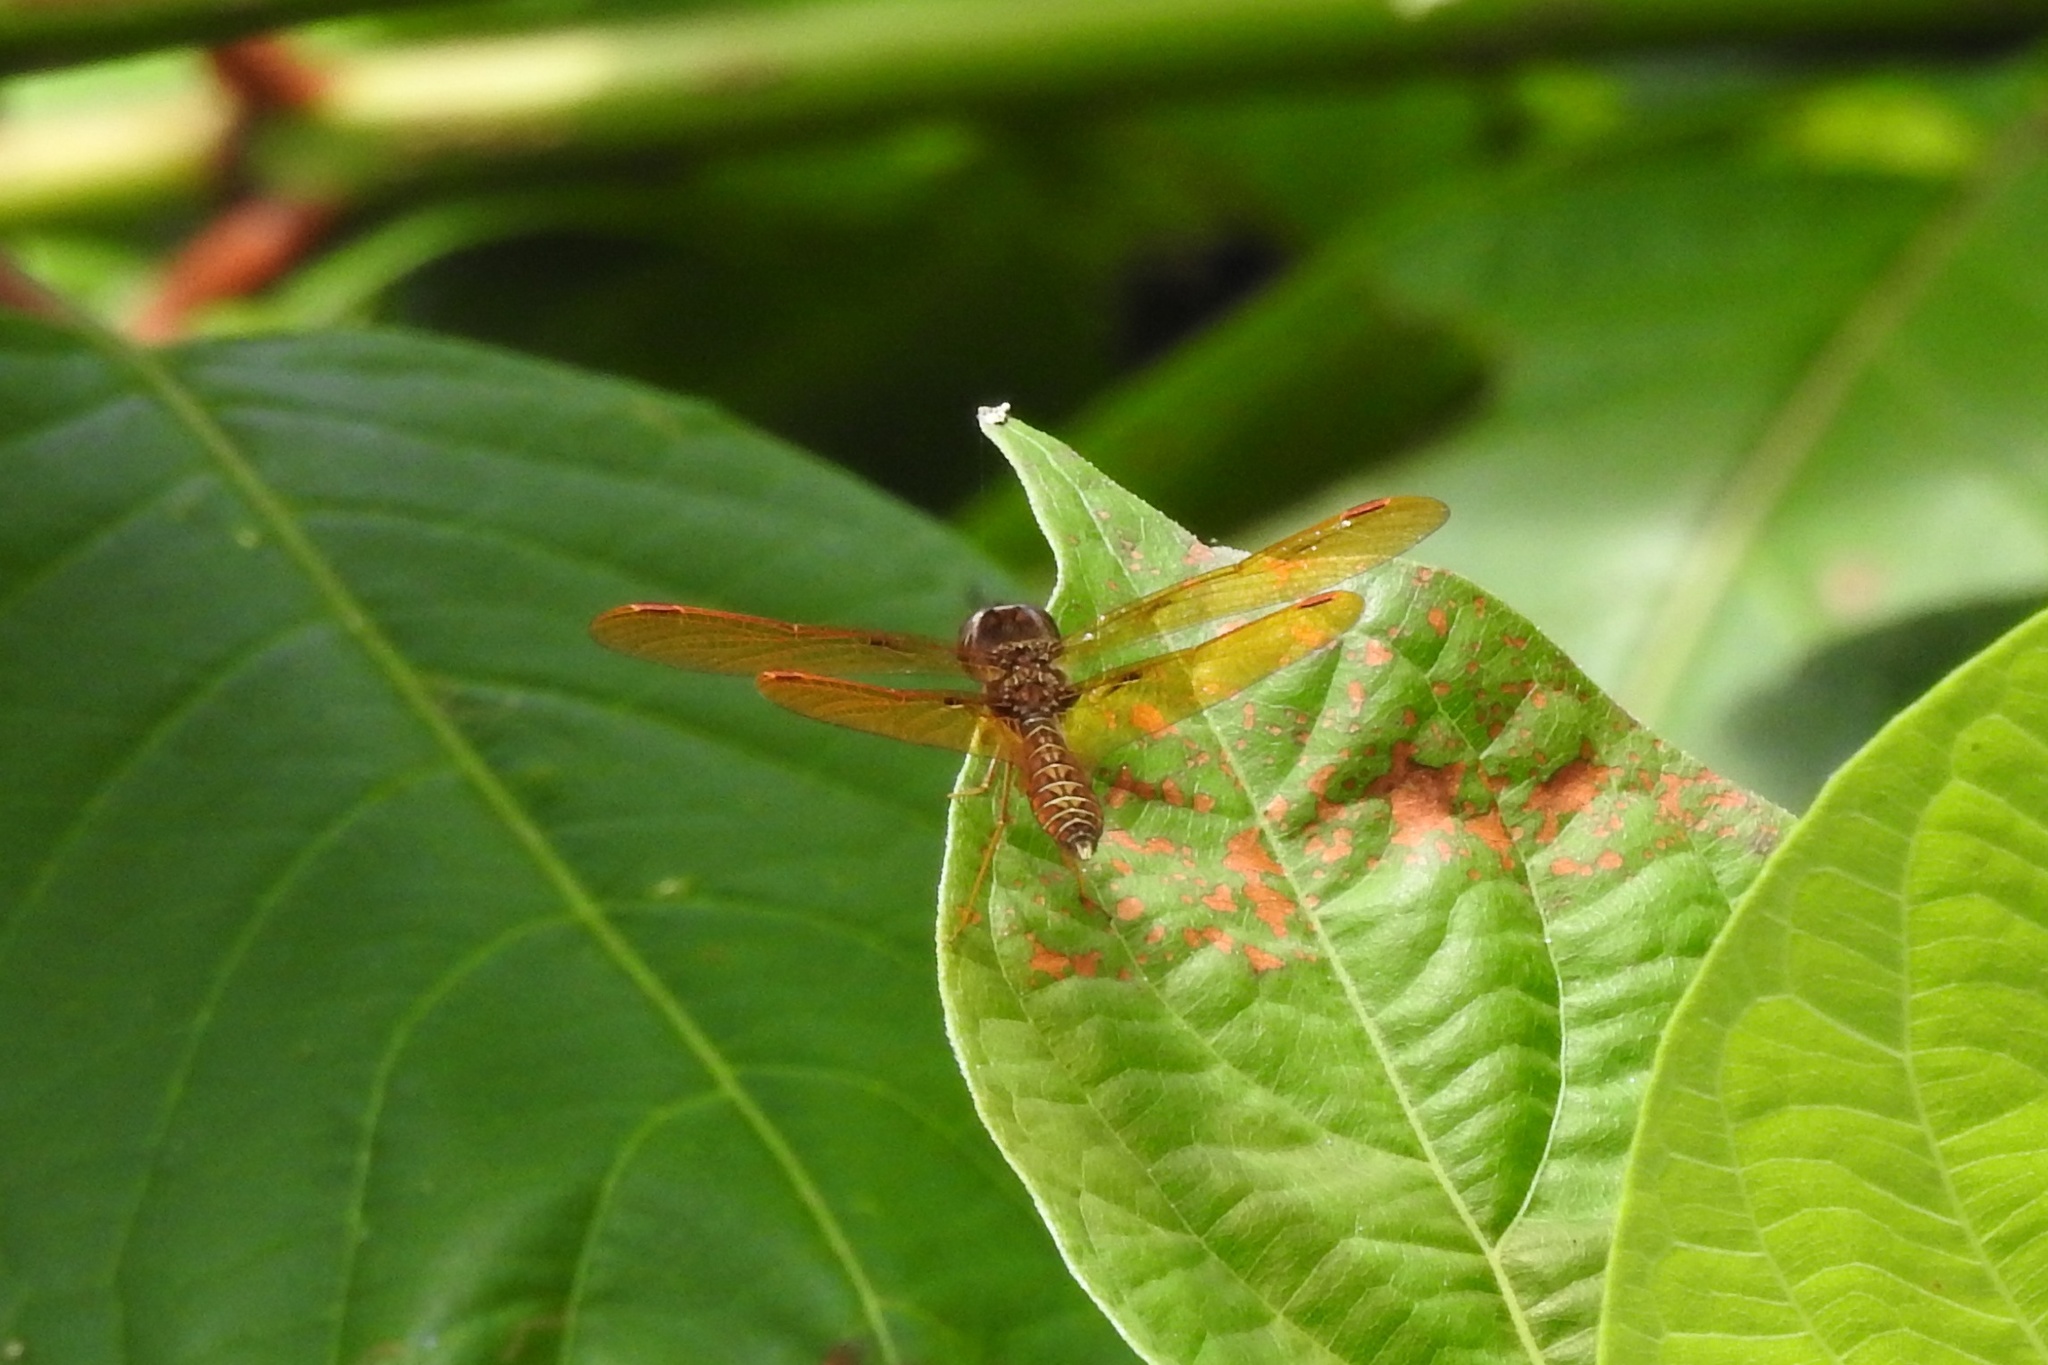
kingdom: Animalia
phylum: Arthropoda
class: Insecta
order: Odonata
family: Libellulidae
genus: Perithemis
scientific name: Perithemis tenera
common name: Eastern amberwing
